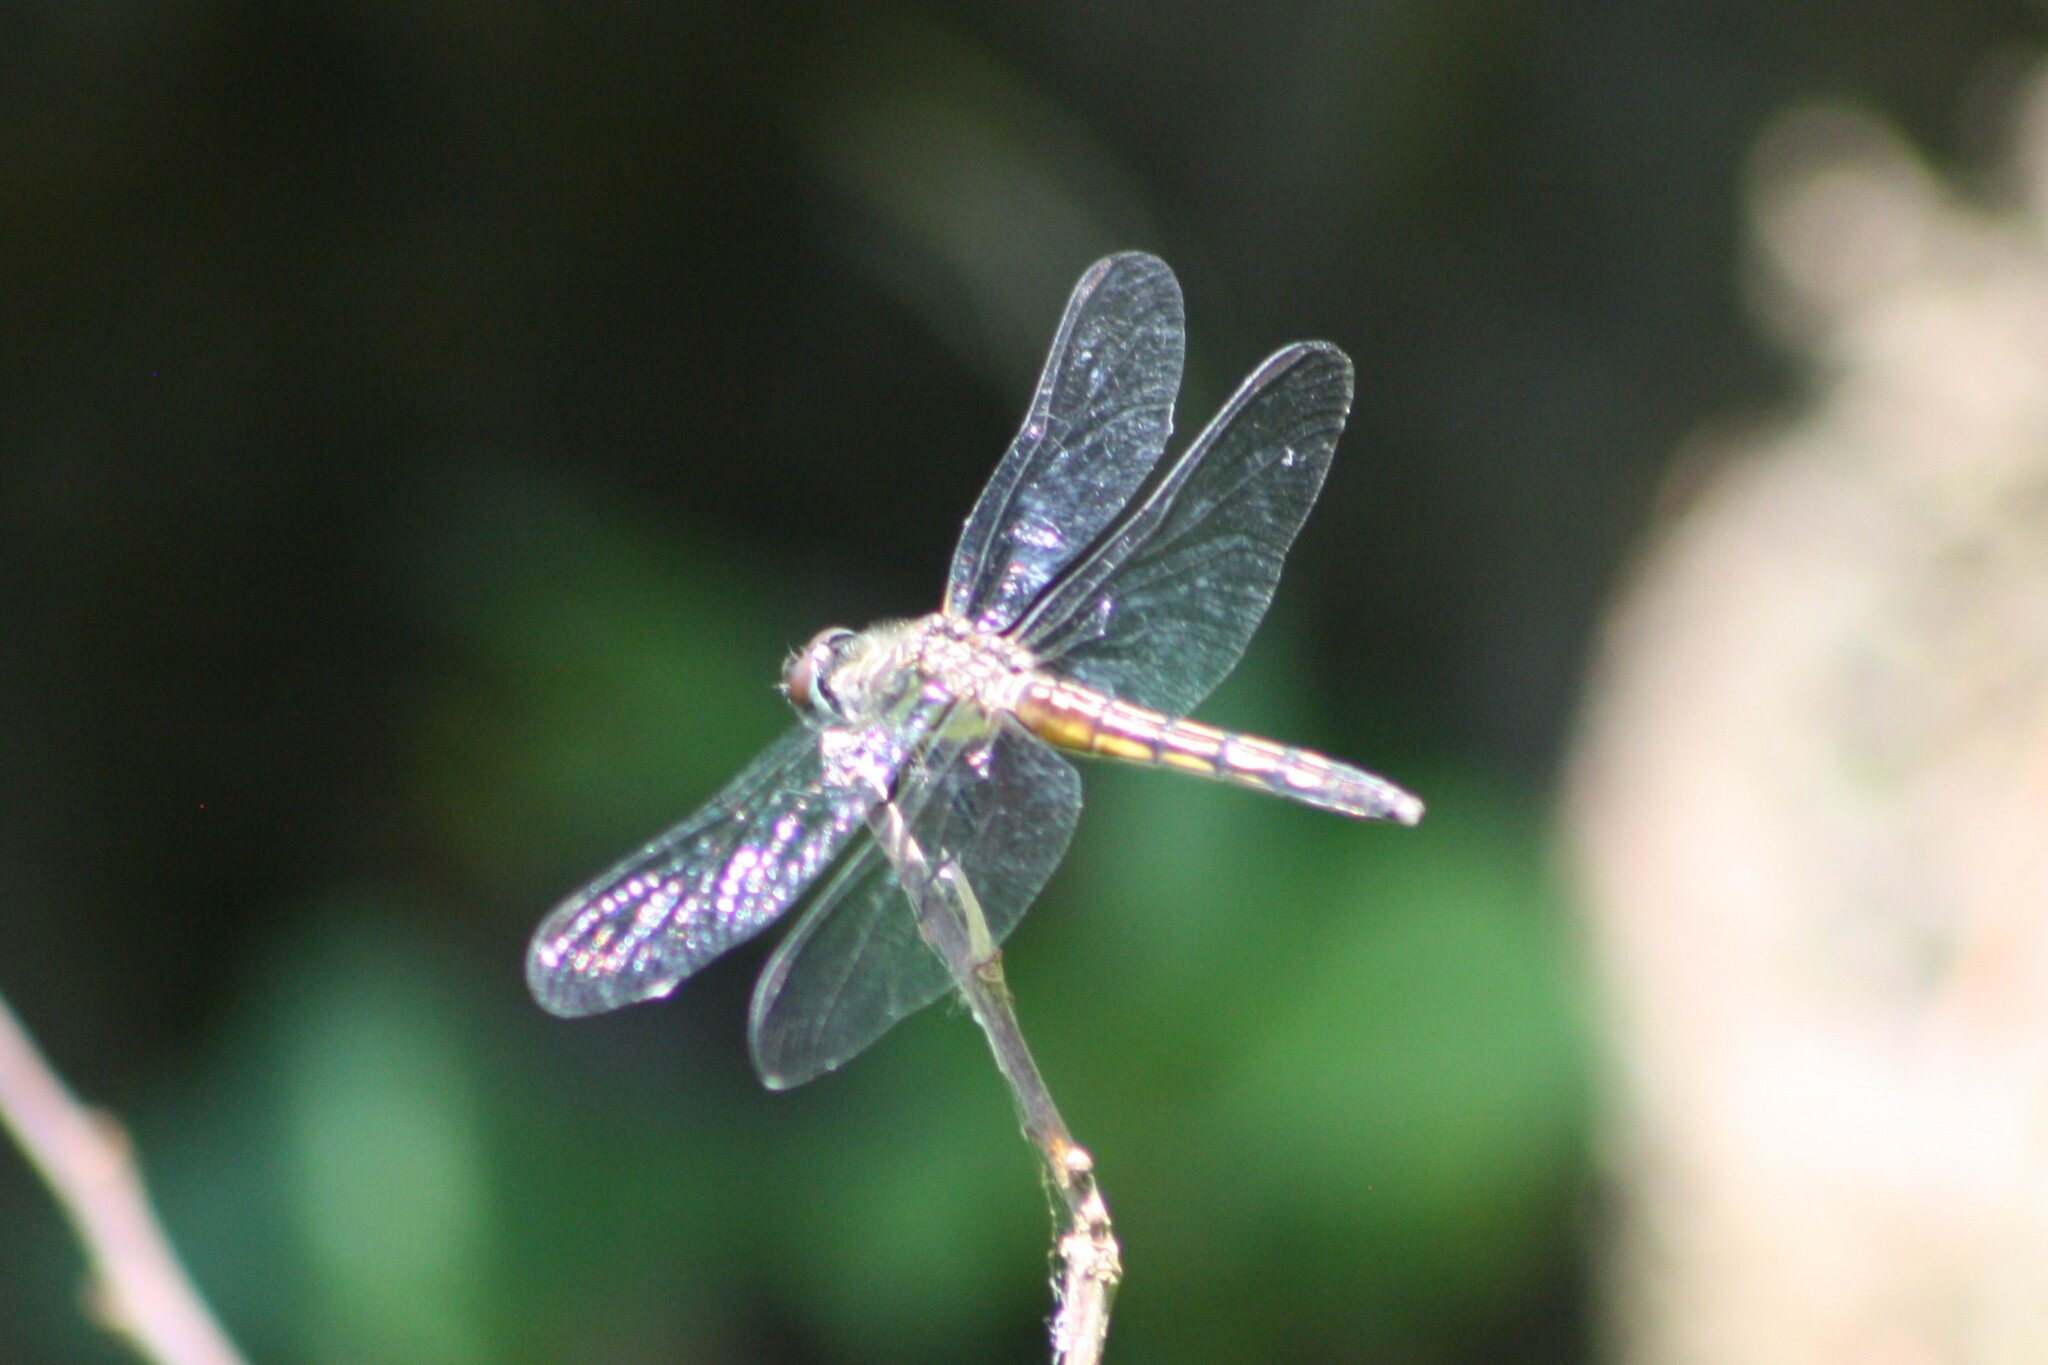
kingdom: Animalia
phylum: Arthropoda
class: Insecta
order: Odonata
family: Libellulidae
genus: Pachydiplax
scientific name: Pachydiplax longipennis
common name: Blue dasher
